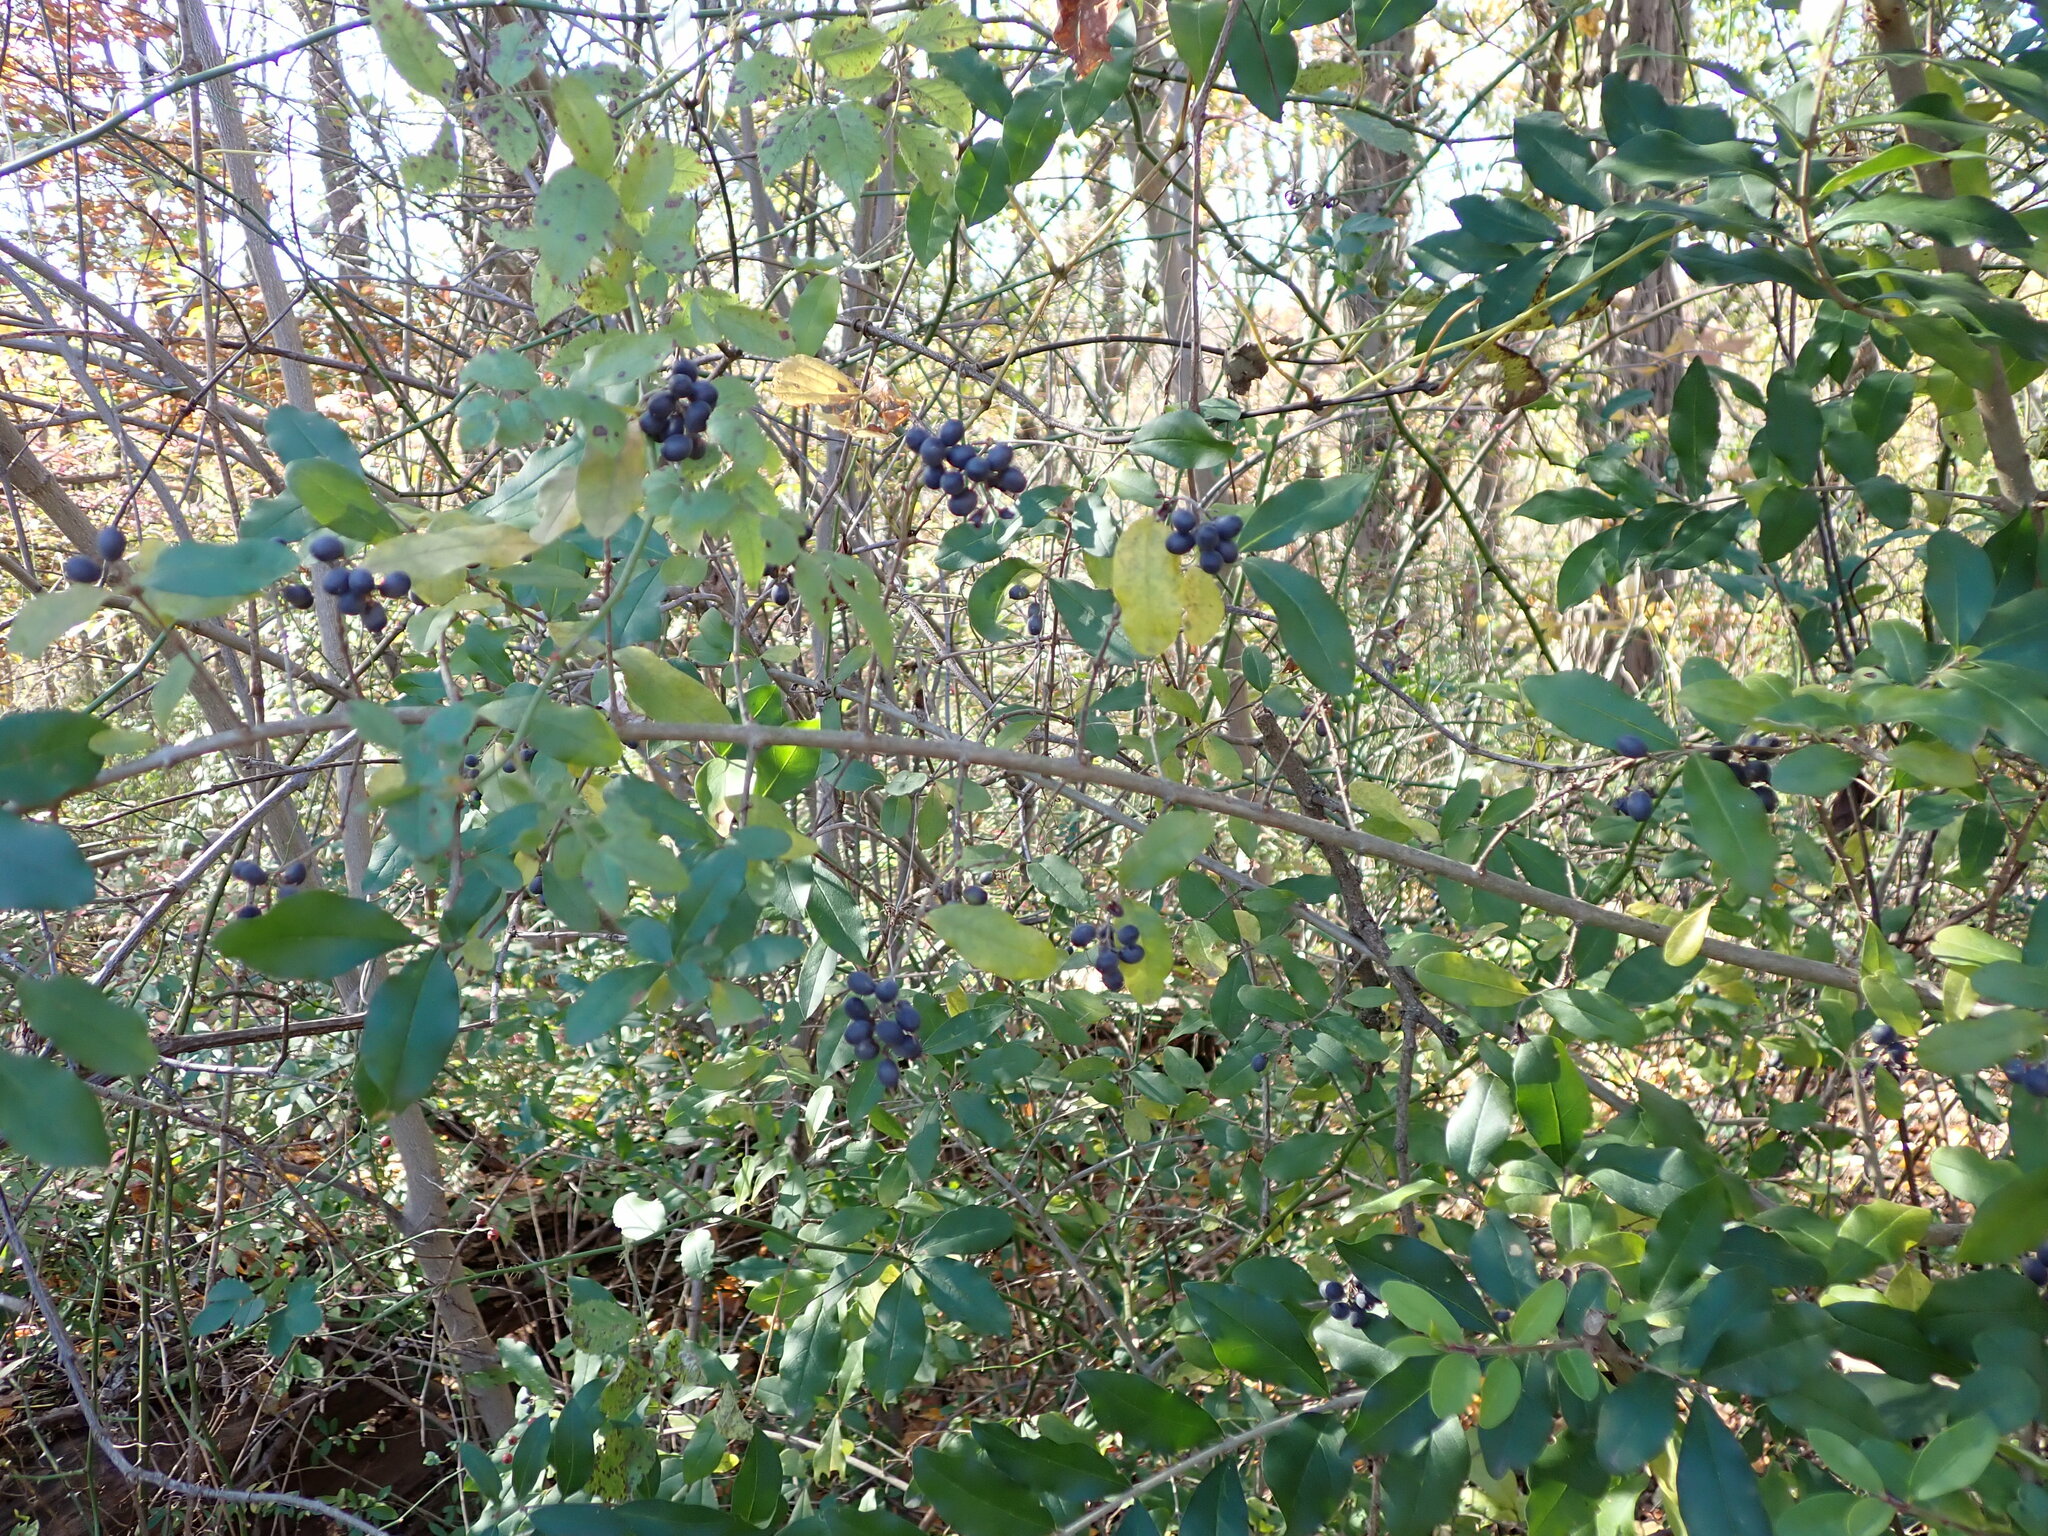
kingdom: Plantae
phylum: Tracheophyta
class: Magnoliopsida
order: Lamiales
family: Oleaceae
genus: Ligustrum
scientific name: Ligustrum obtusifolium
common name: Border privet
